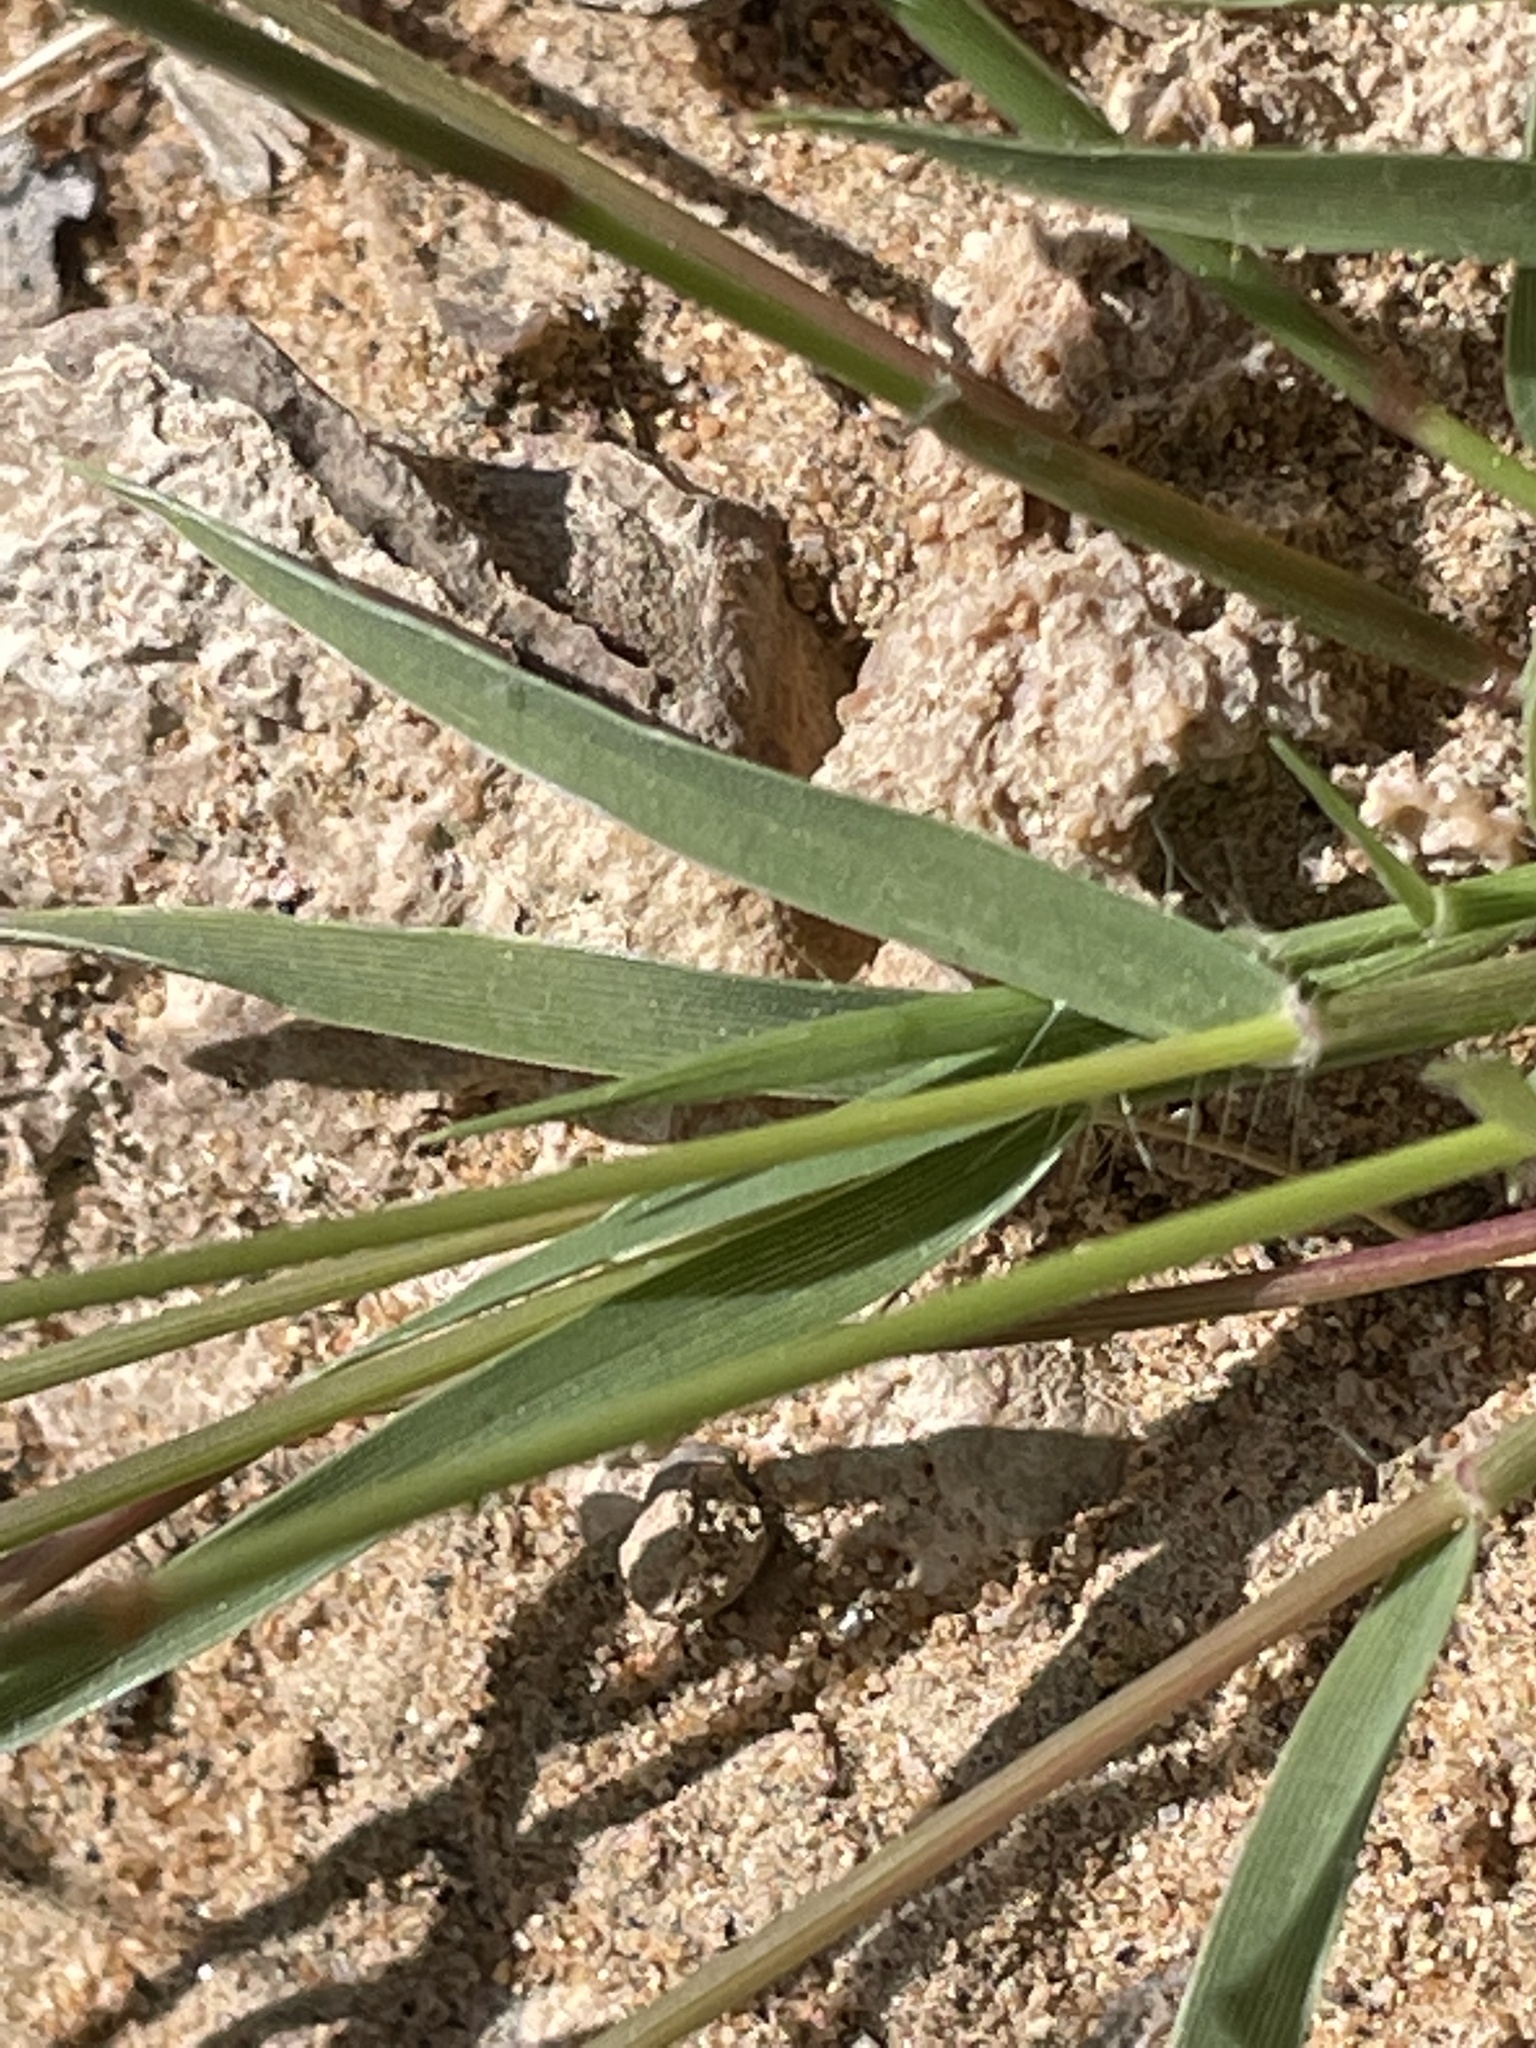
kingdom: Plantae
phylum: Tracheophyta
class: Liliopsida
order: Poales
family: Poaceae
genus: Bouteloua
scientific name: Bouteloua aristidoides
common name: Needle grama
